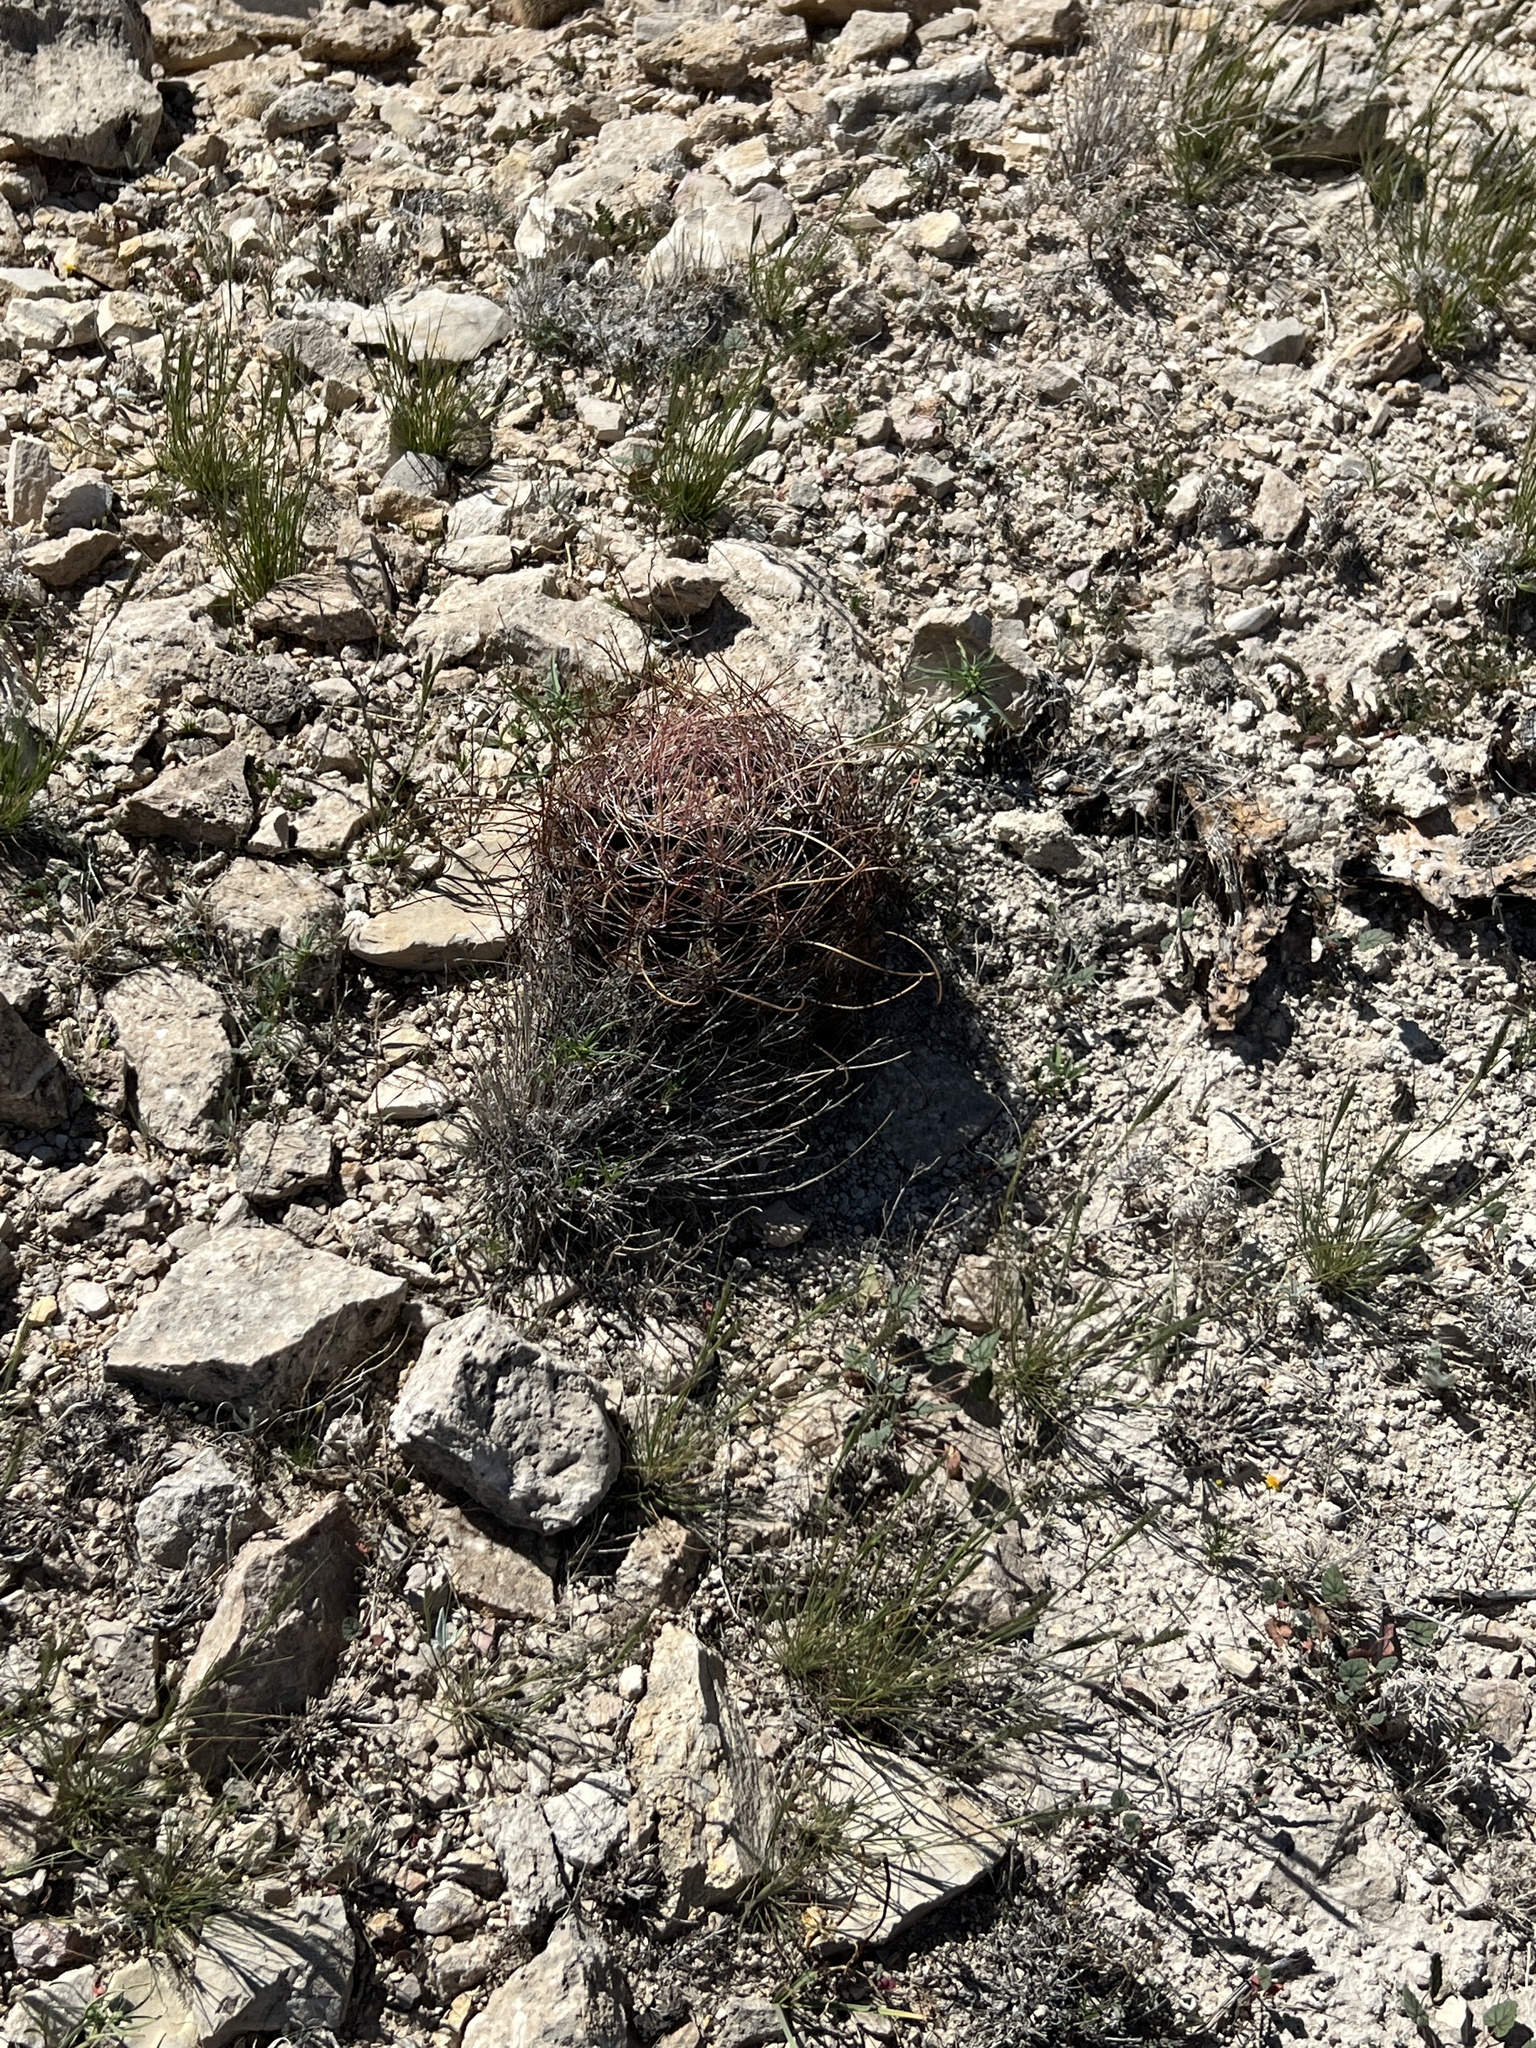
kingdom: Plantae
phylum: Tracheophyta
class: Magnoliopsida
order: Caryophyllales
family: Cactaceae
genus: Bisnaga
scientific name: Bisnaga hamatacantha
